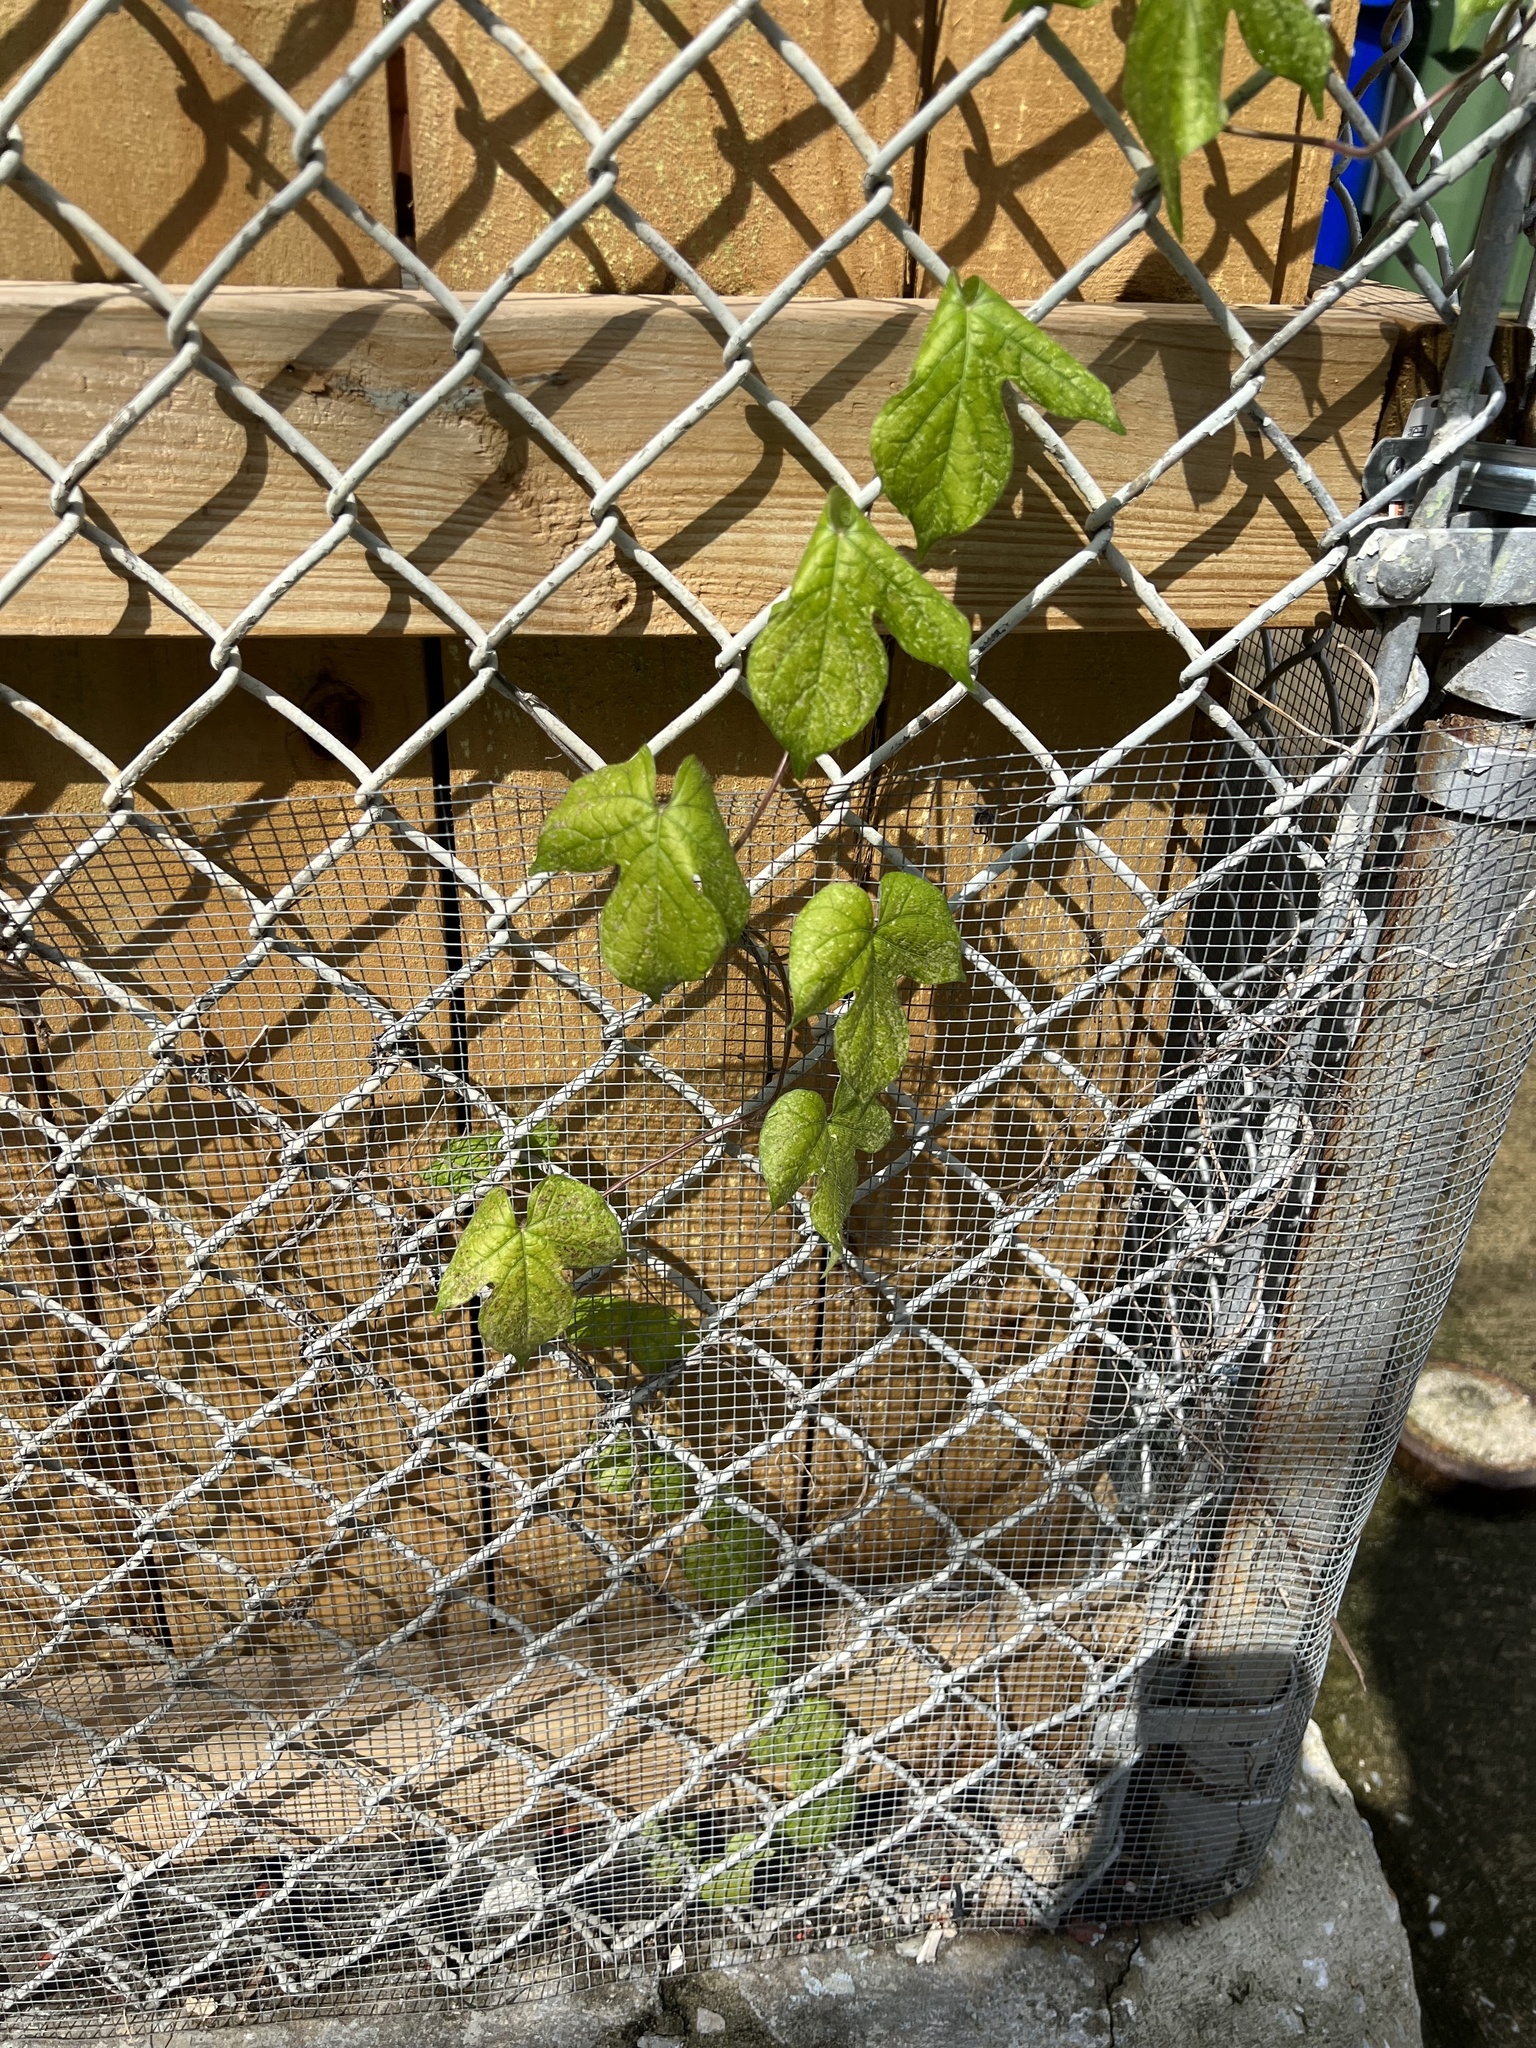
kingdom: Plantae
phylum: Tracheophyta
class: Magnoliopsida
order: Solanales
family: Convolvulaceae
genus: Ipomoea
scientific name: Ipomoea hederacea
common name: Ivy-leaved morning-glory
